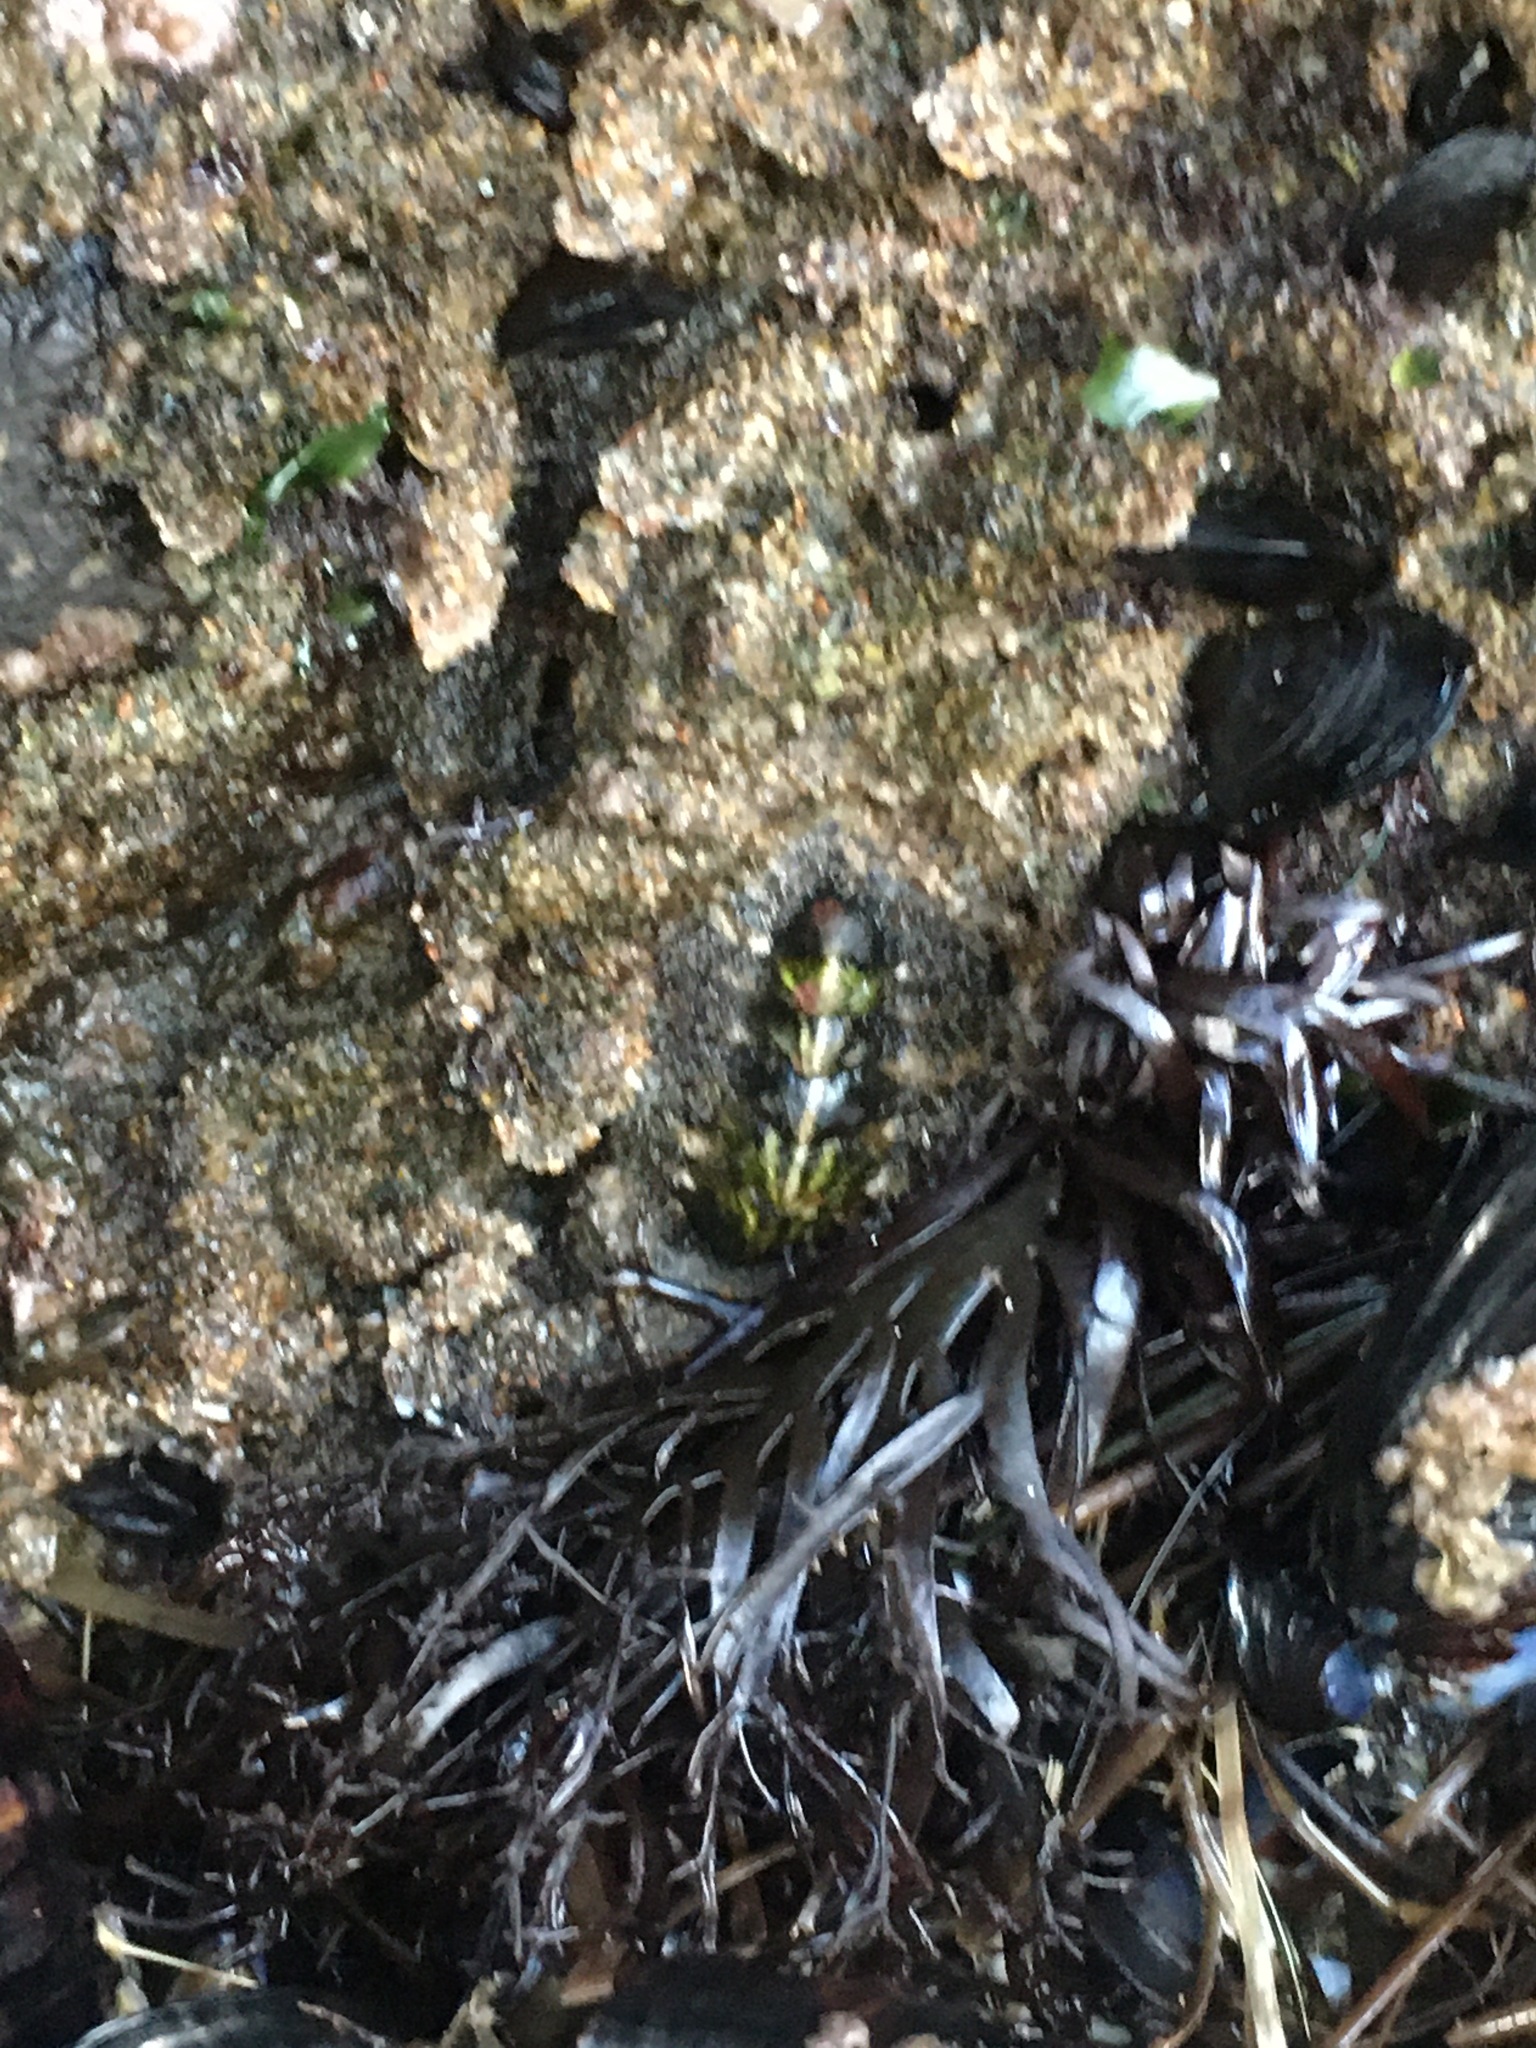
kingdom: Animalia
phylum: Mollusca
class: Polyplacophora
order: Chitonida
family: Tonicellidae
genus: Nuttallina
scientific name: Nuttallina californica
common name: California nuttall chiton
